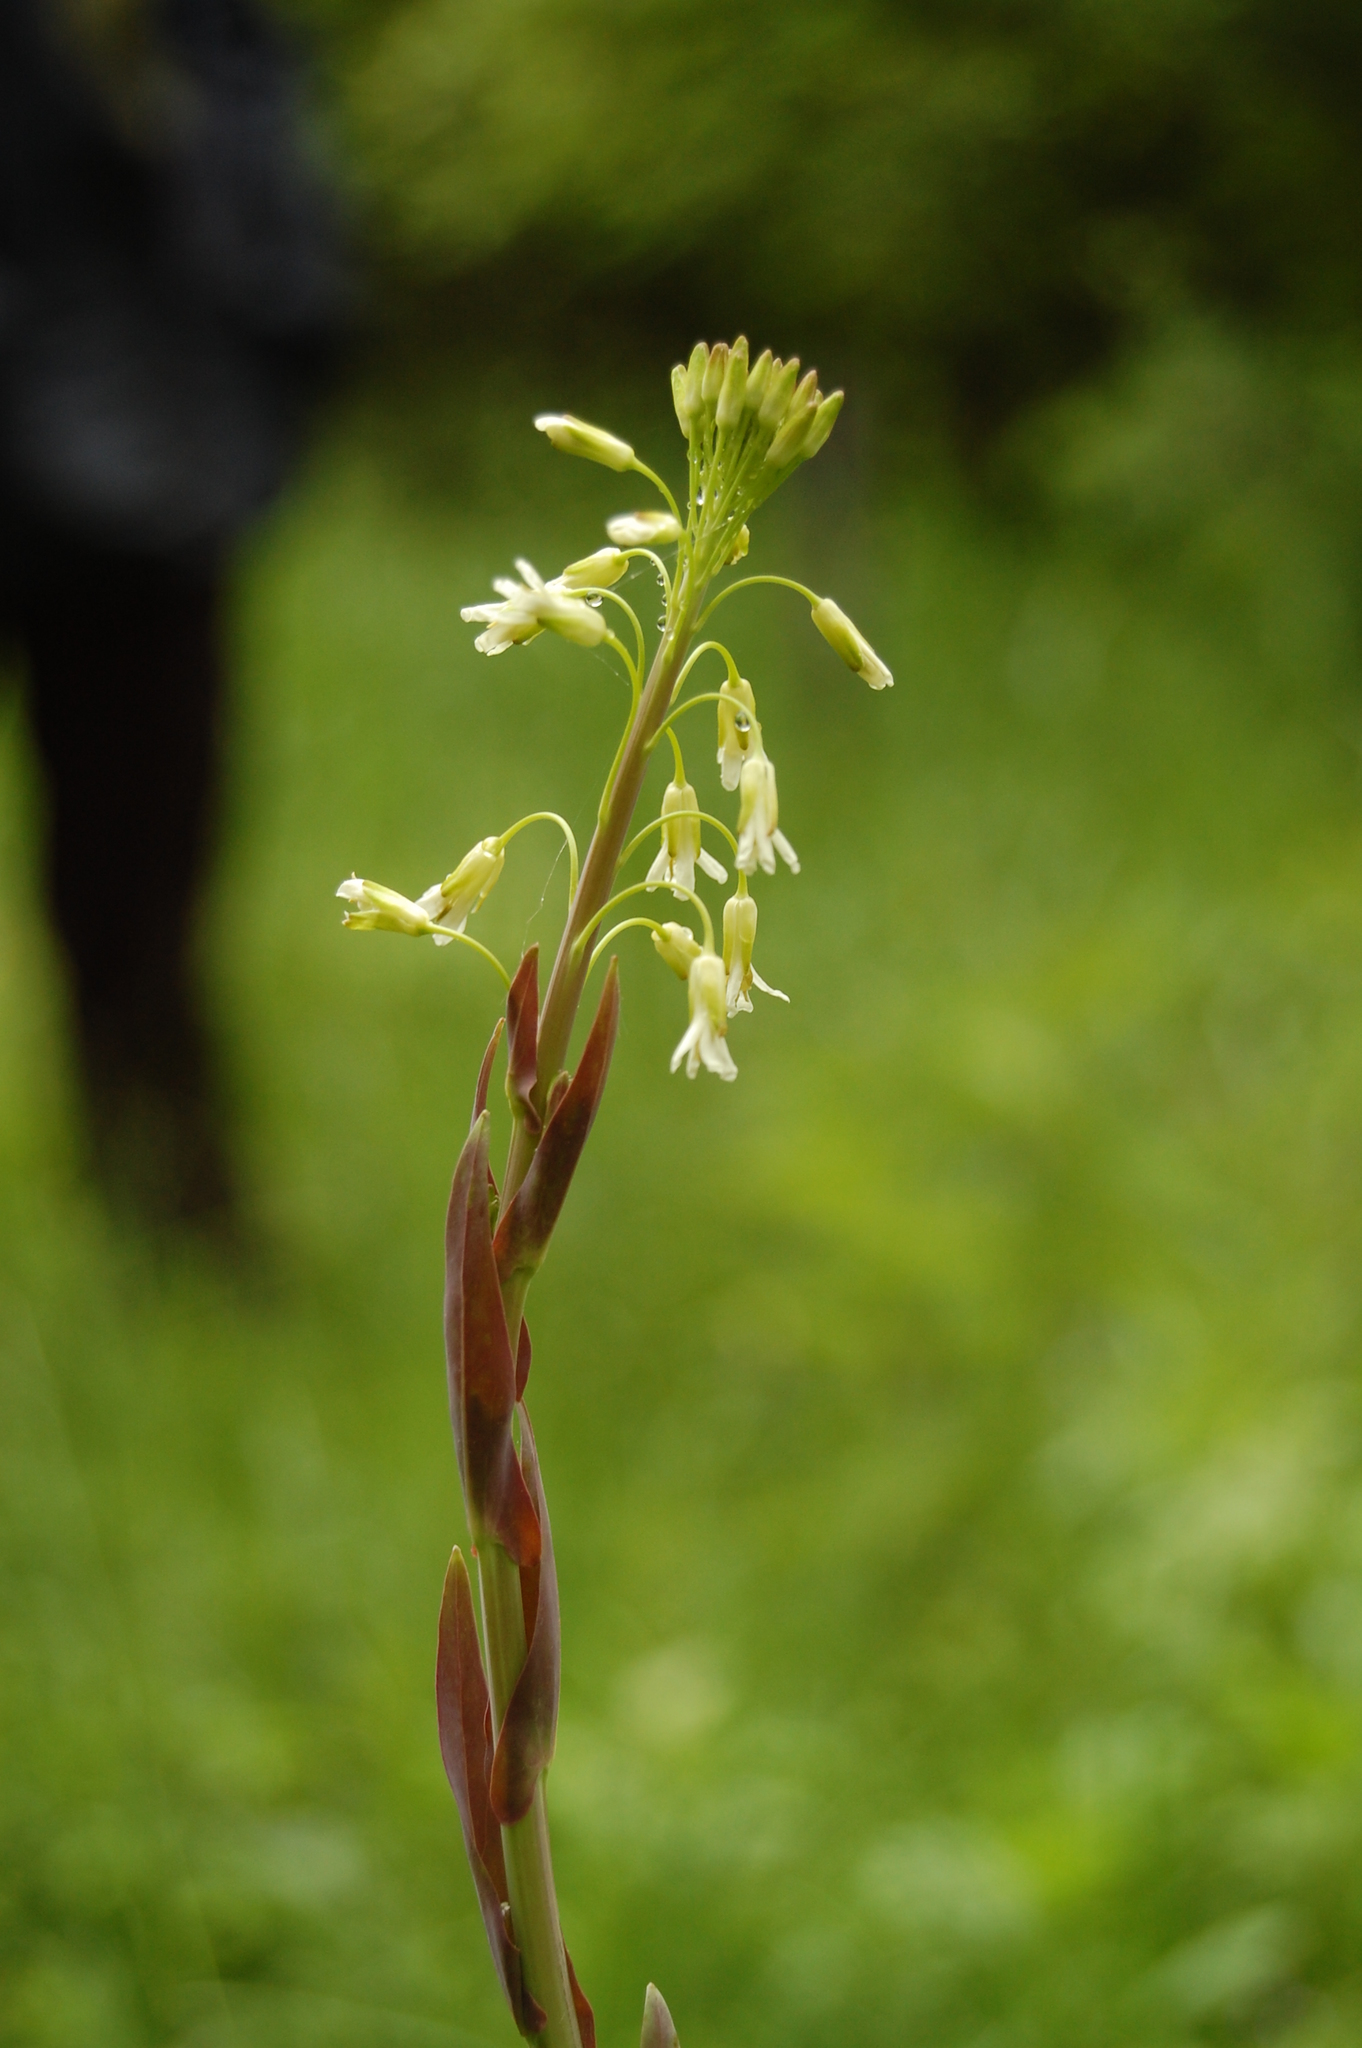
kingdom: Plantae
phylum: Tracheophyta
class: Magnoliopsida
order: Brassicales
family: Brassicaceae
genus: Turritis
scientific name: Turritis glabra
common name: Tower rockcress
